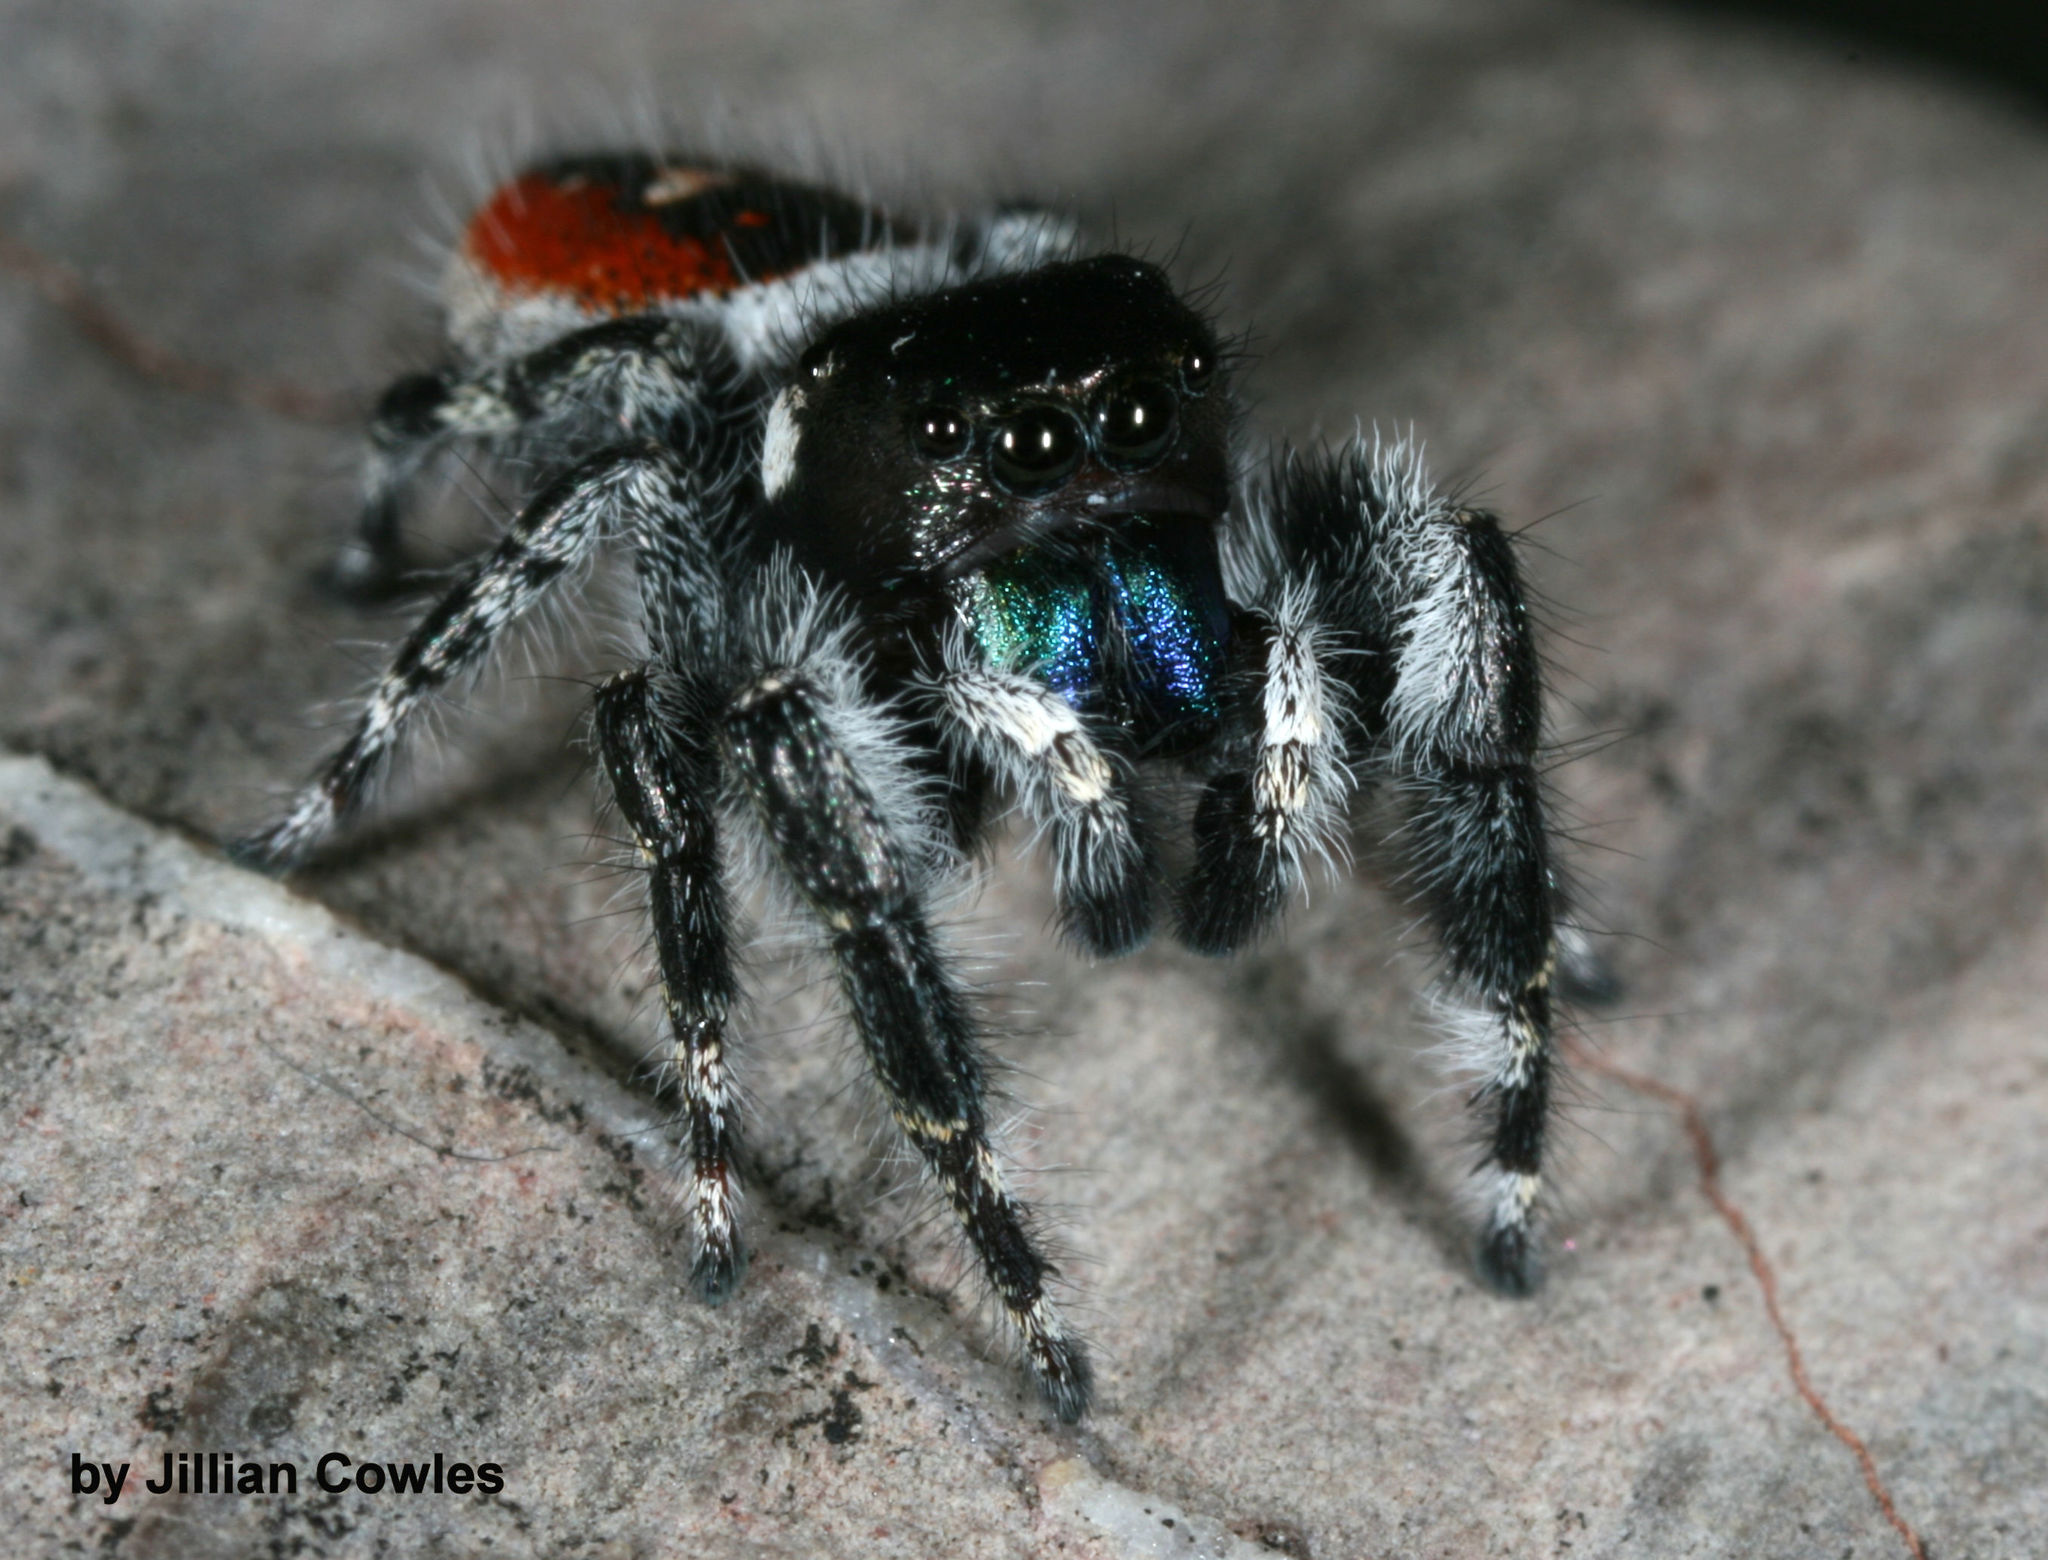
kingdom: Animalia
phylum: Arthropoda
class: Arachnida
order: Araneae
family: Salticidae
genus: Phidippus
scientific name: Phidippus californicus
